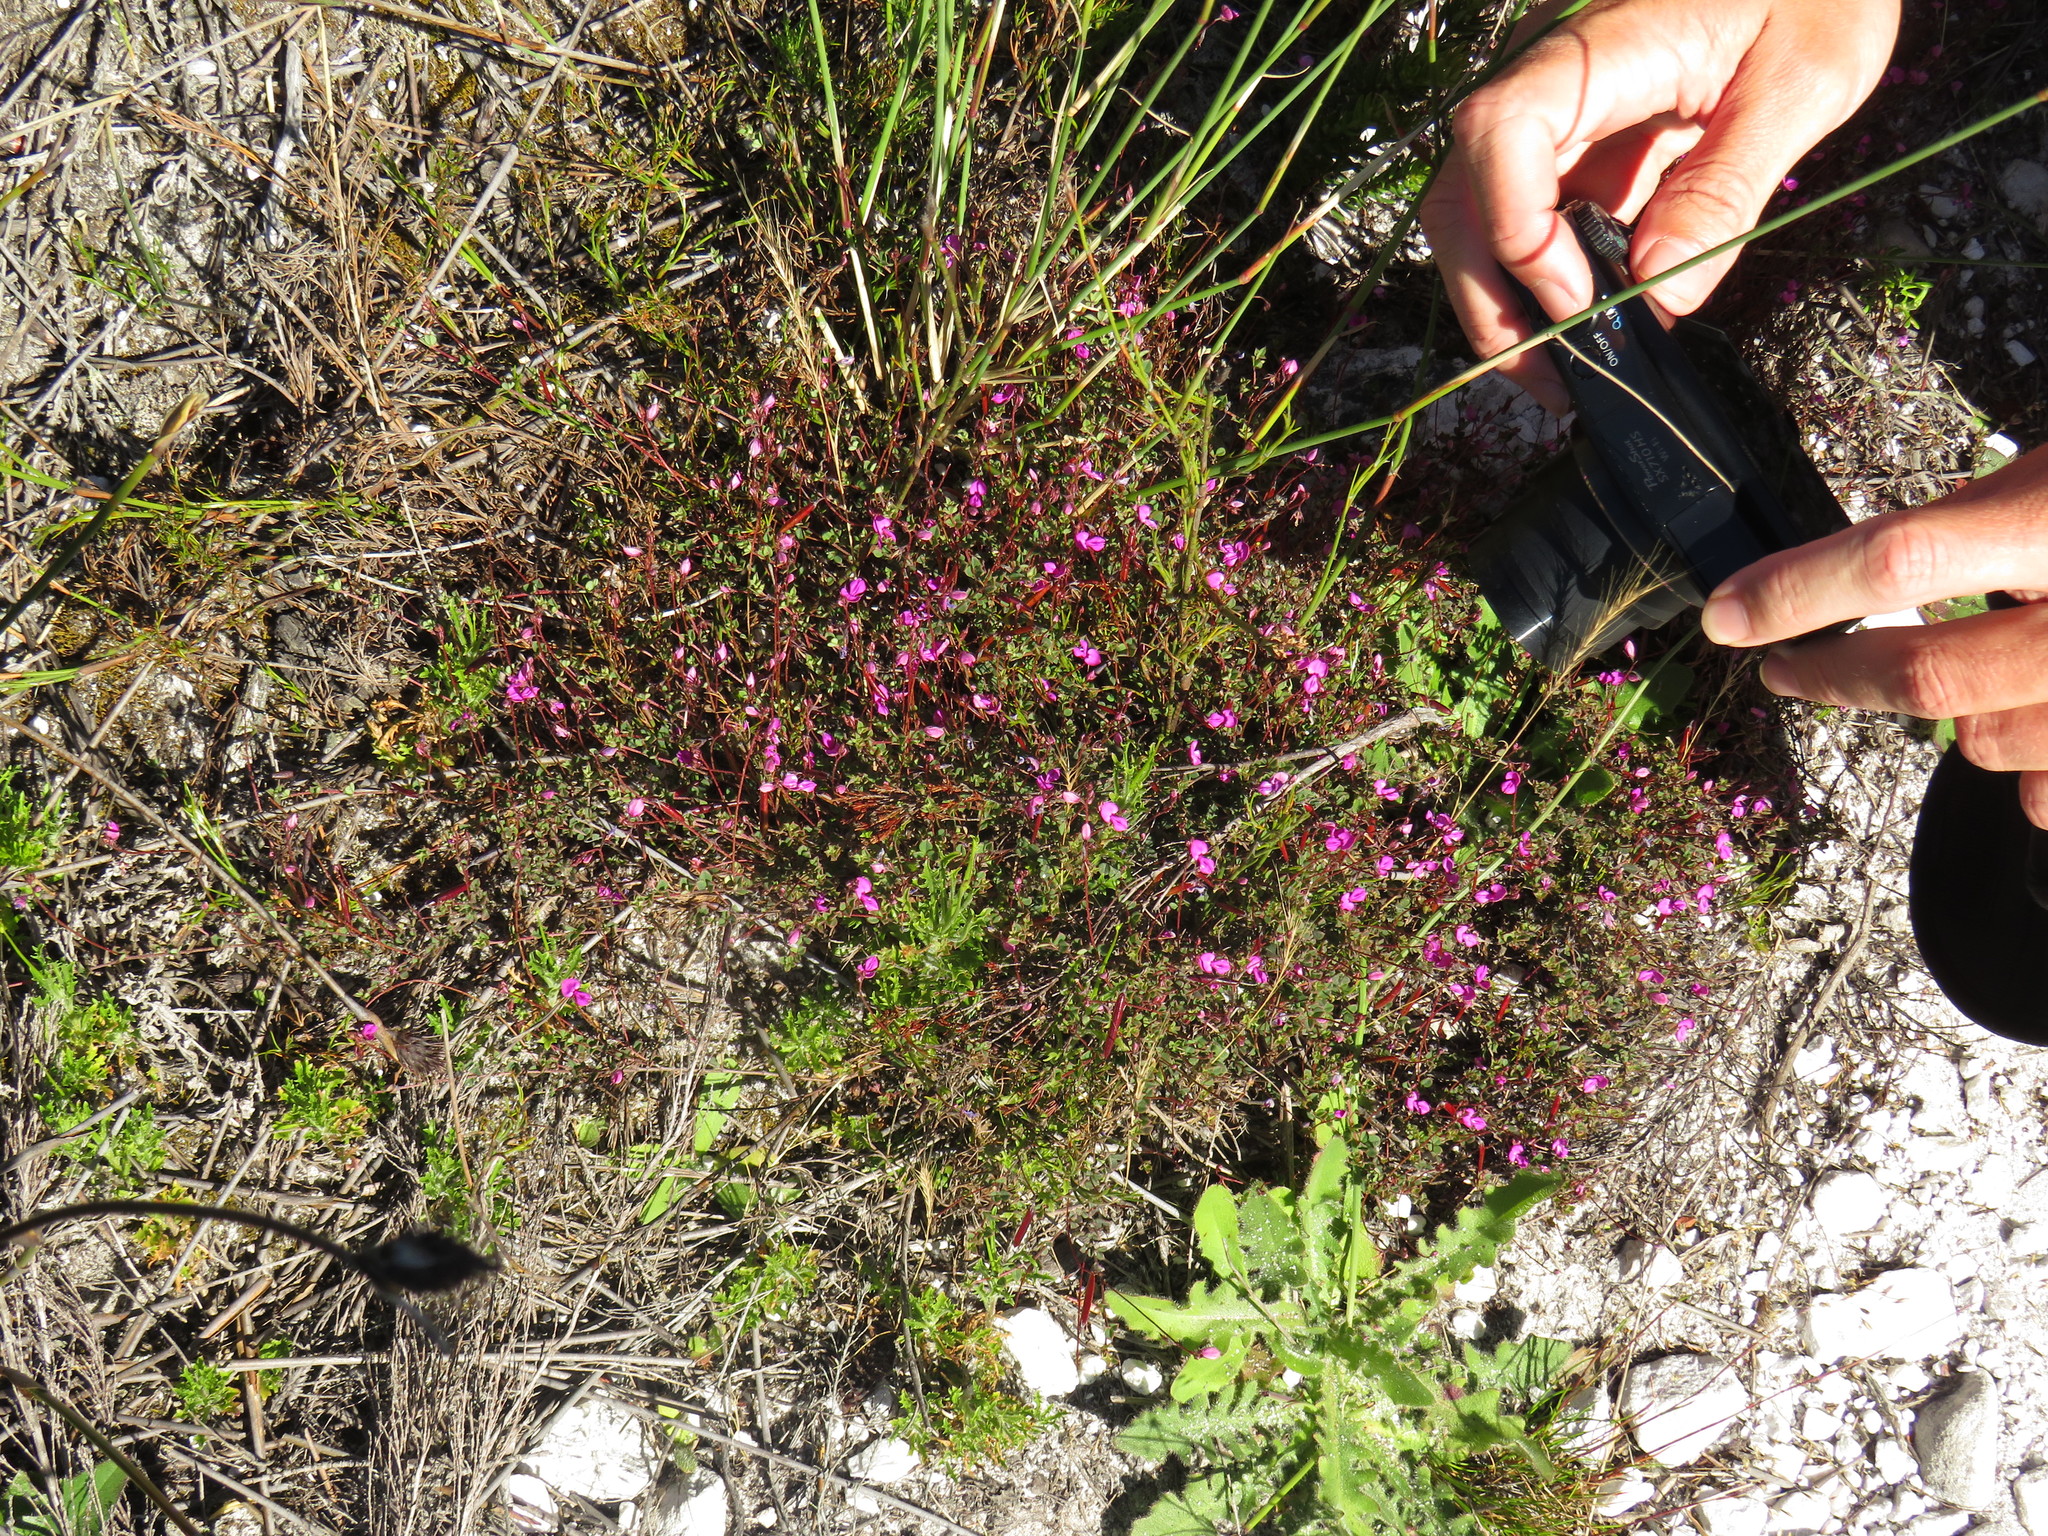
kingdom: Plantae
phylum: Tracheophyta
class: Magnoliopsida
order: Fabales
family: Fabaceae
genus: Indigofera
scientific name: Indigofera sarmentosa
